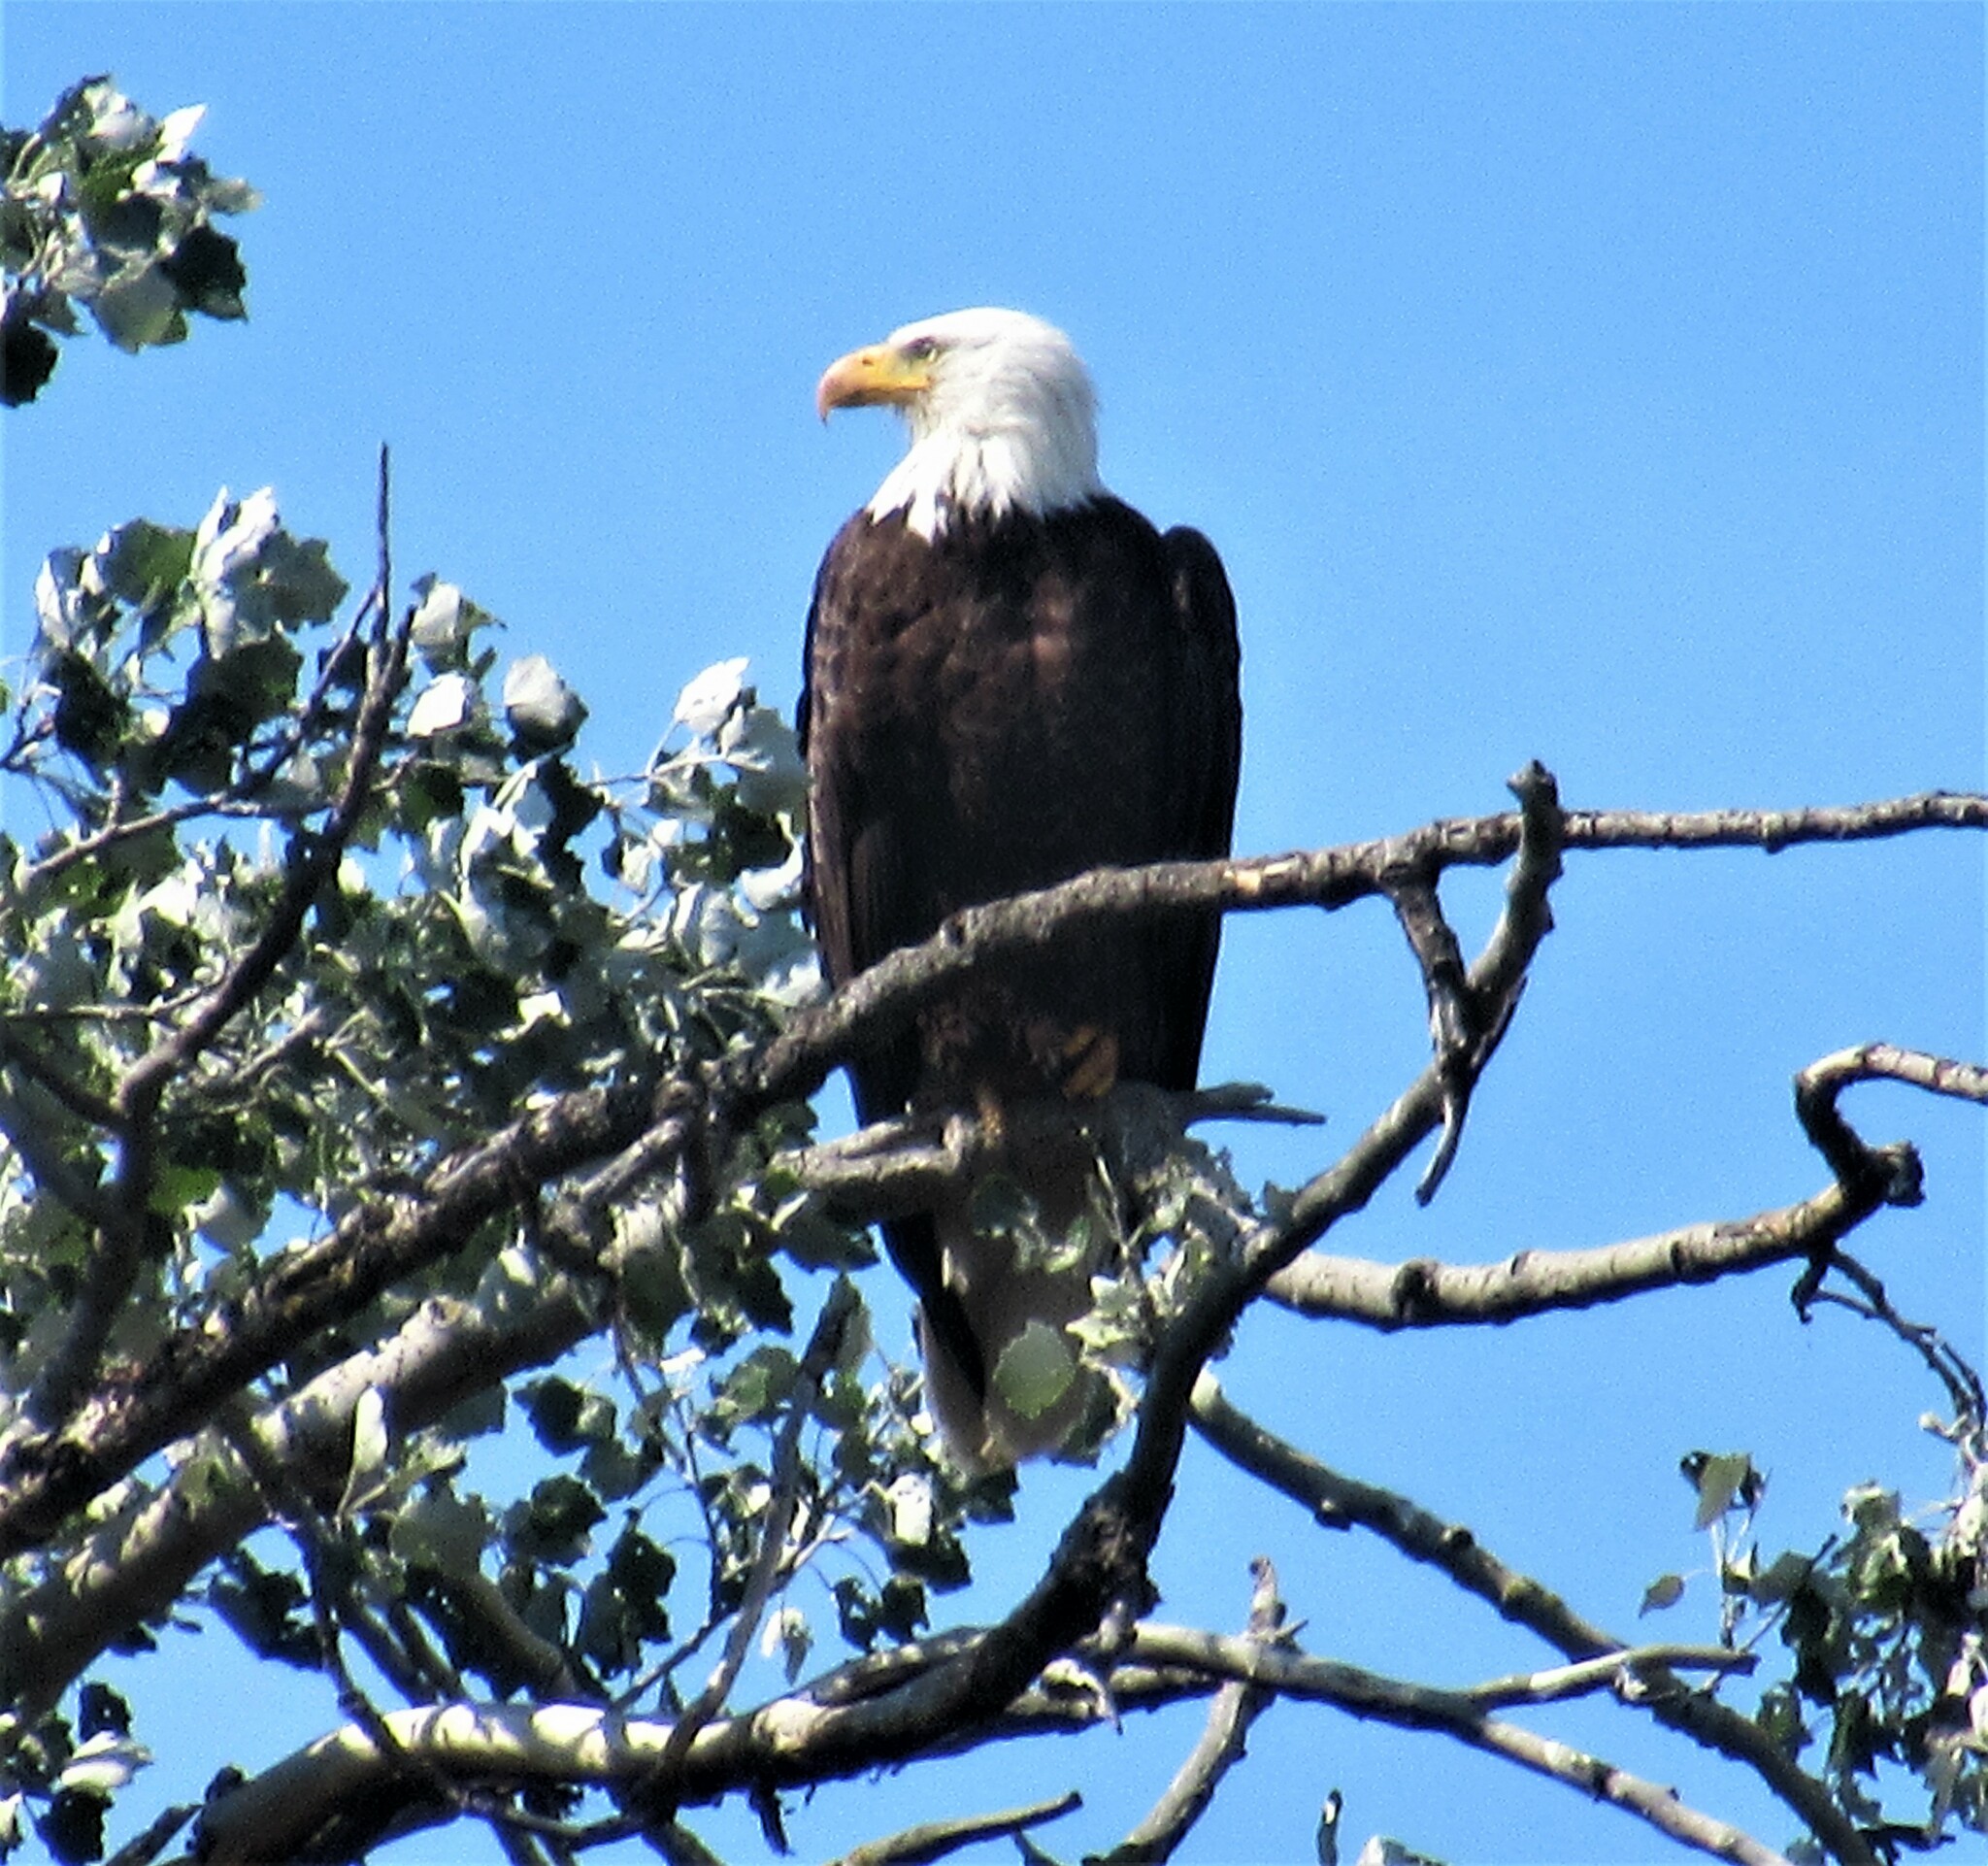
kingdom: Animalia
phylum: Chordata
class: Aves
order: Accipitriformes
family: Accipitridae
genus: Haliaeetus
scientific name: Haliaeetus leucocephalus
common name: Bald eagle
